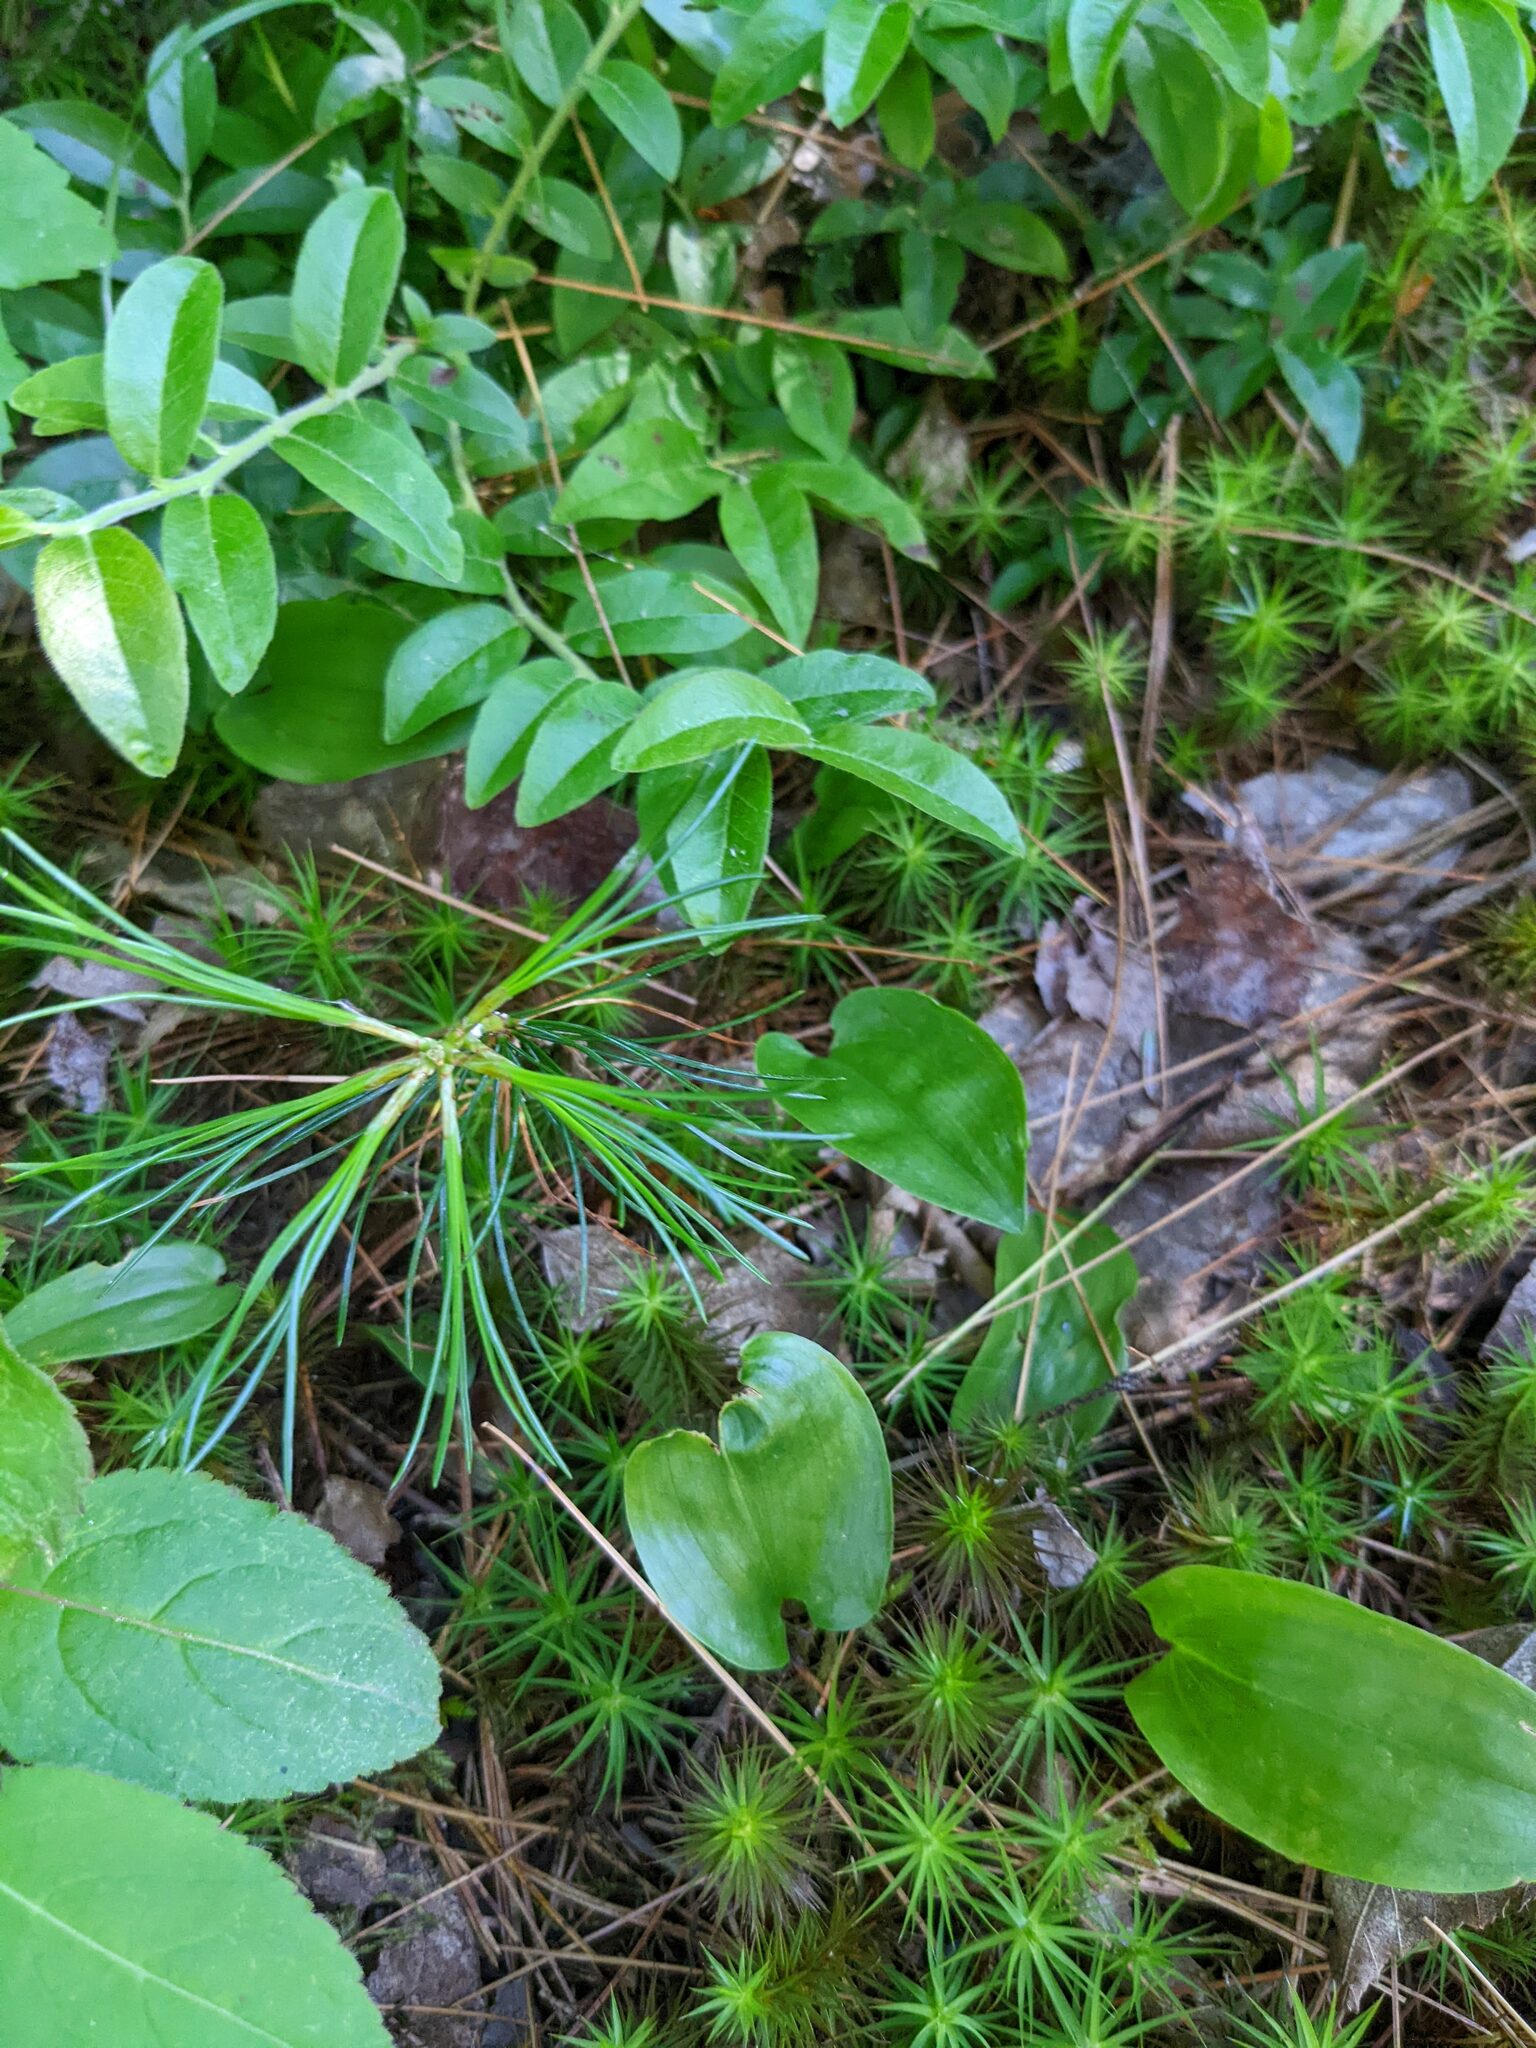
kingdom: Plantae
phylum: Tracheophyta
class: Pinopsida
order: Pinales
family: Pinaceae
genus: Pinus
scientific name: Pinus strobus
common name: Weymouth pine
